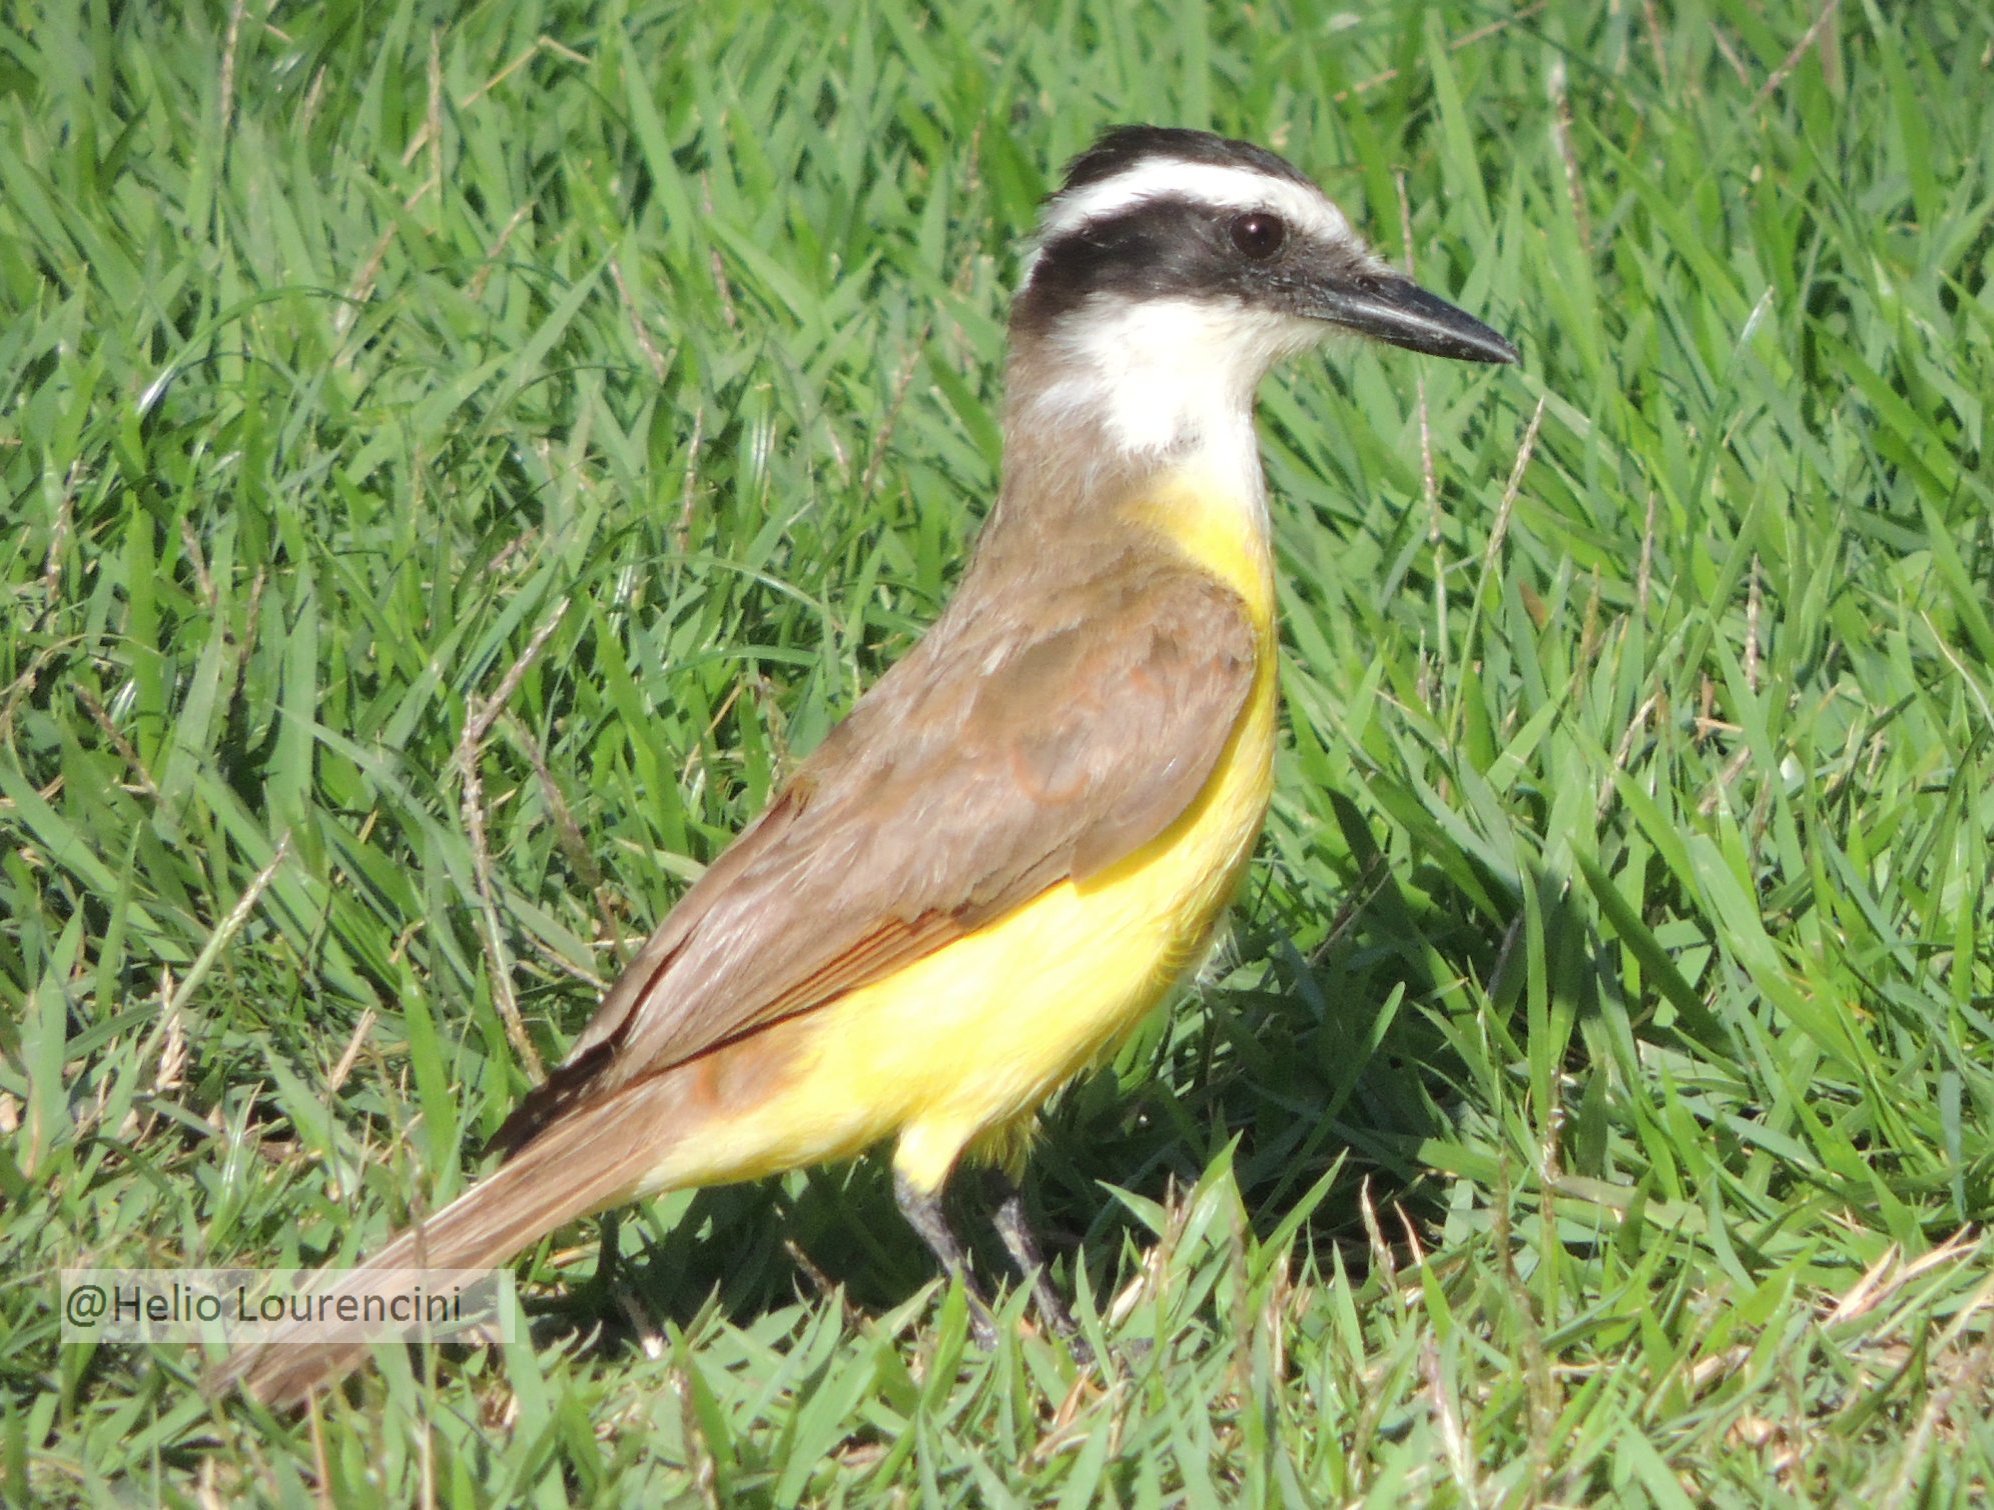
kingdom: Animalia
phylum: Chordata
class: Aves
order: Passeriformes
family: Tyrannidae
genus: Pitangus
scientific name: Pitangus sulphuratus
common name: Great kiskadee
